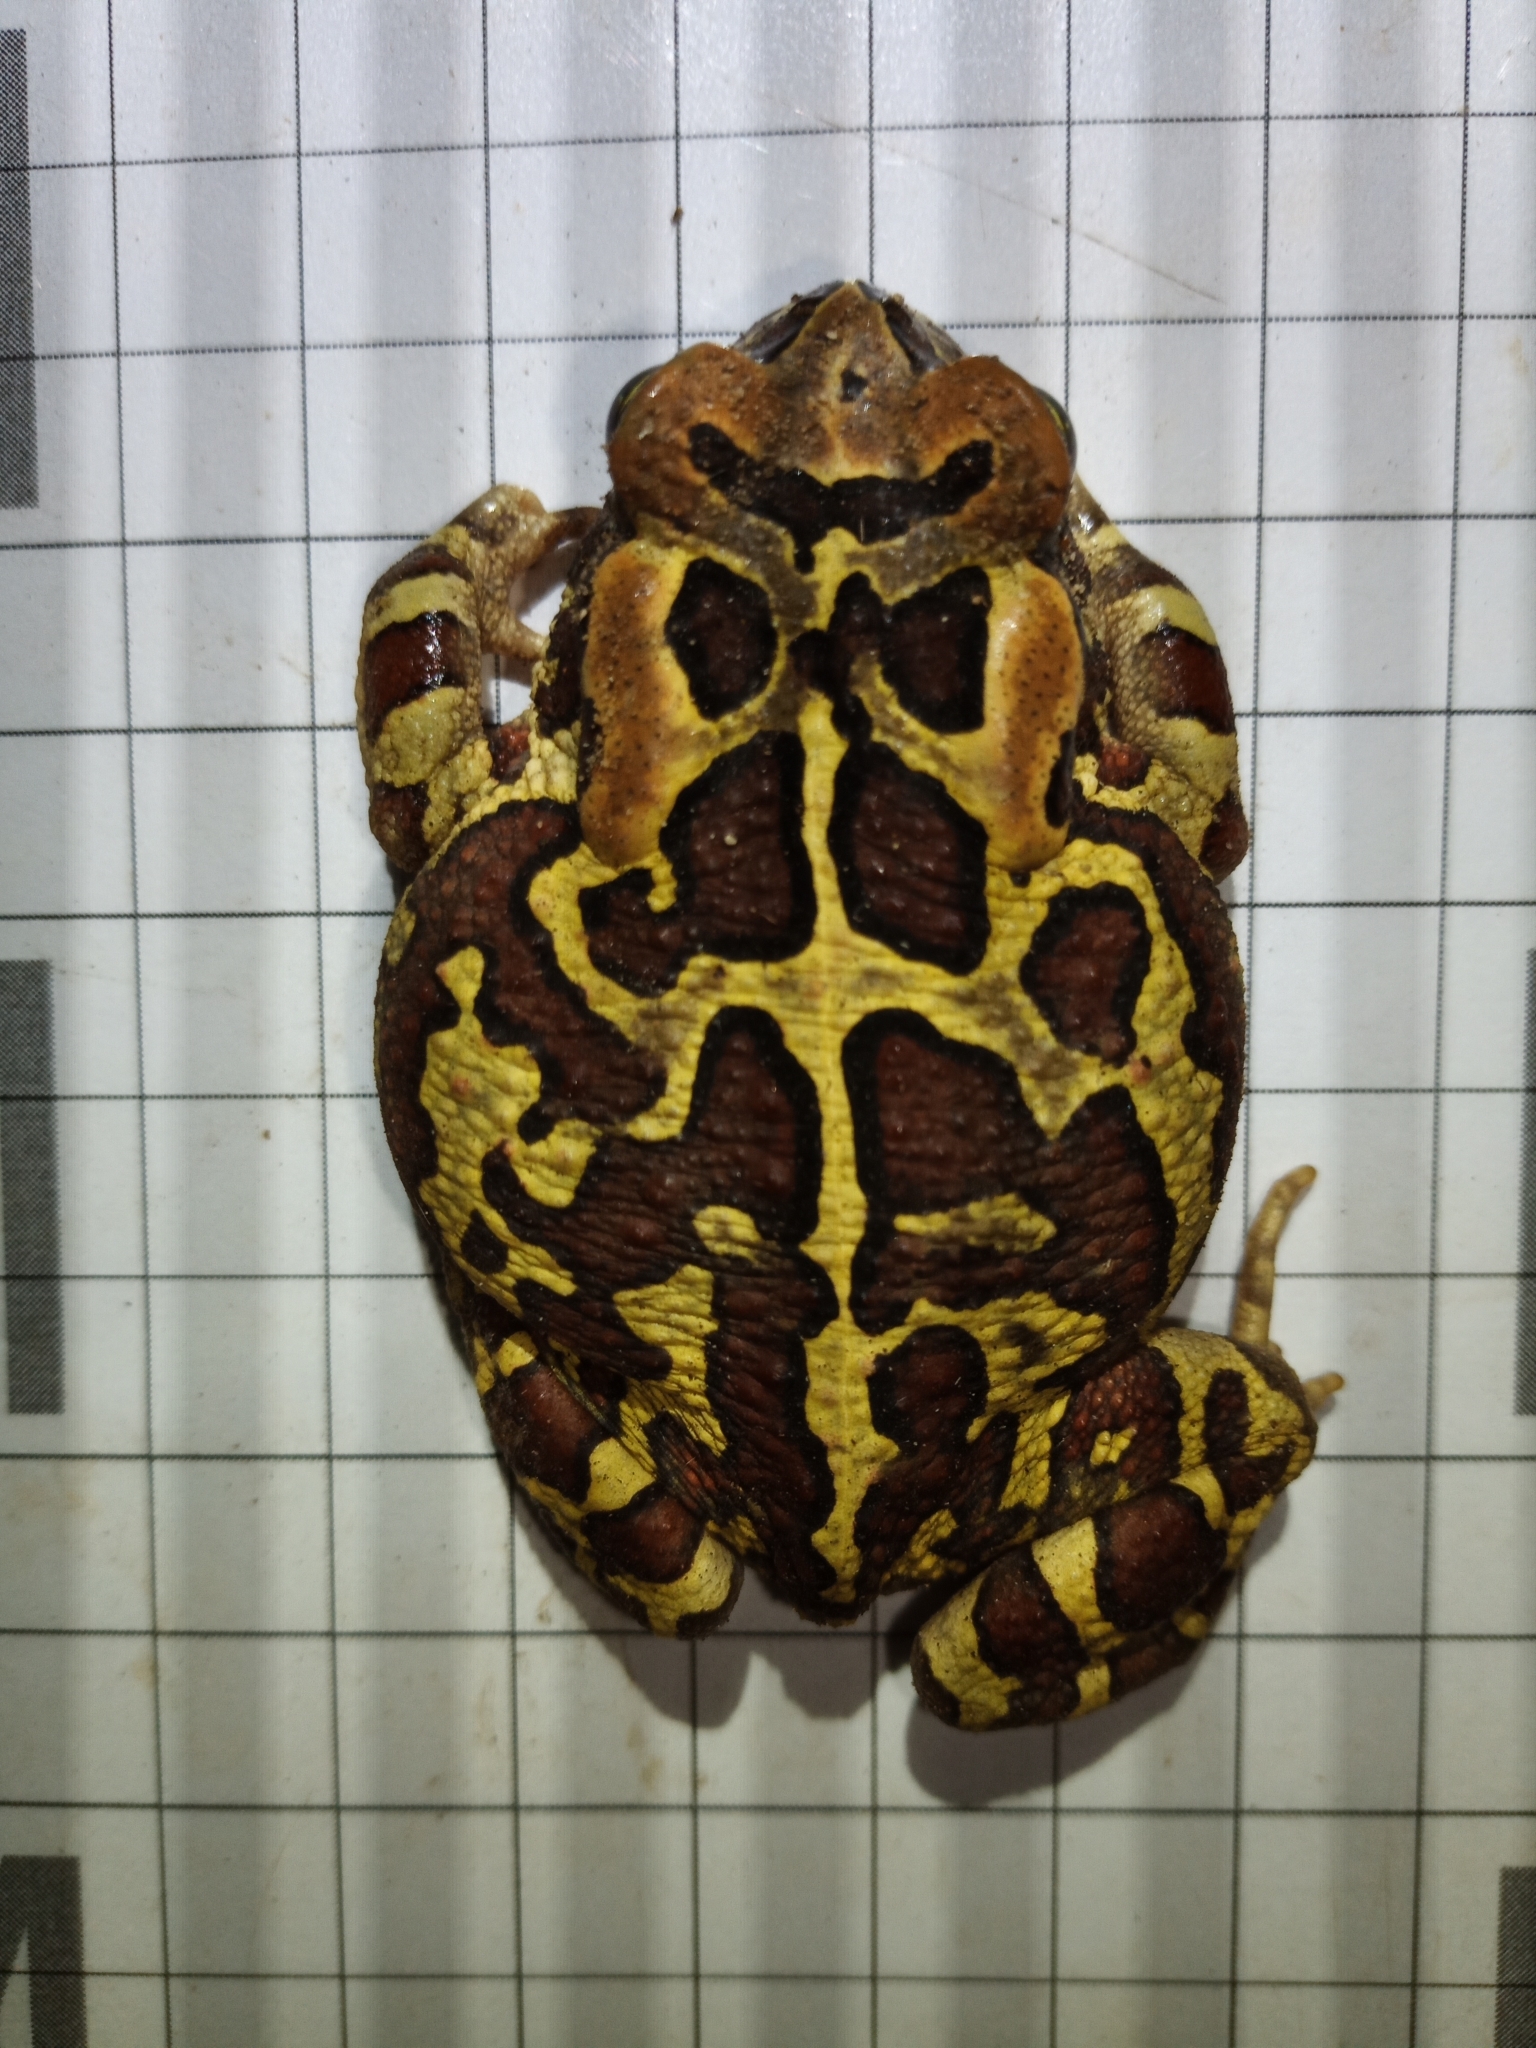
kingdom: Animalia
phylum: Chordata
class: Amphibia
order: Anura
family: Bufonidae
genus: Sclerophrys
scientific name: Sclerophrys pantherina
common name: Panther toad
